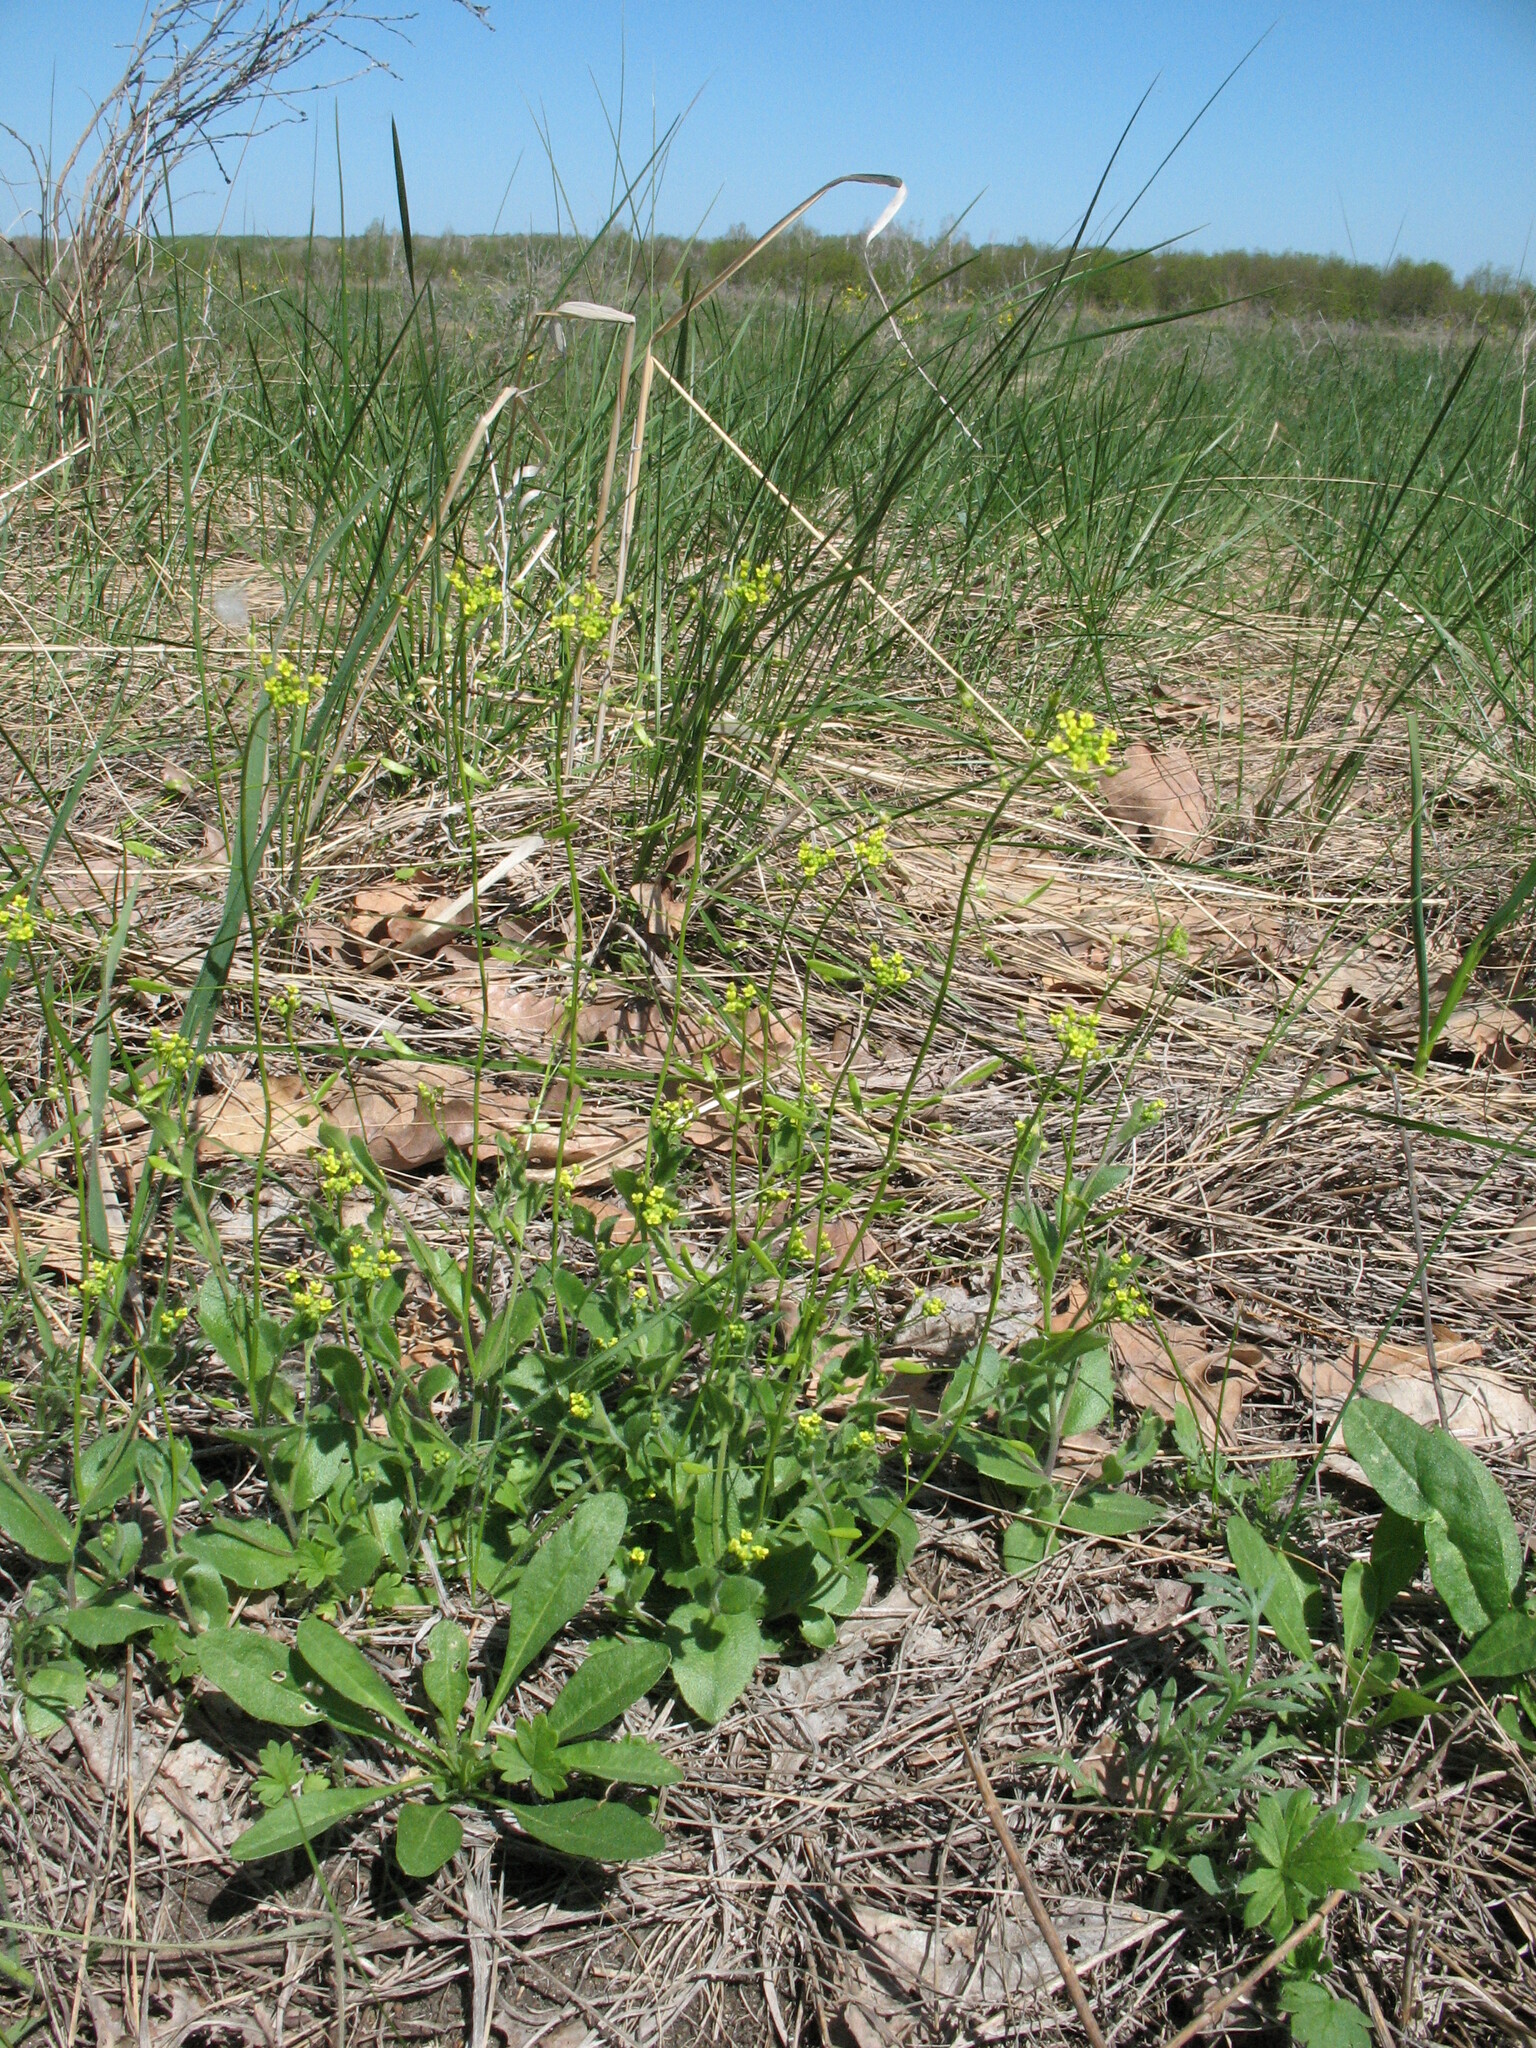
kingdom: Plantae
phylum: Tracheophyta
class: Magnoliopsida
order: Brassicales
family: Brassicaceae
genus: Draba
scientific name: Draba nemorosa
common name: Wood whitlow-grass
